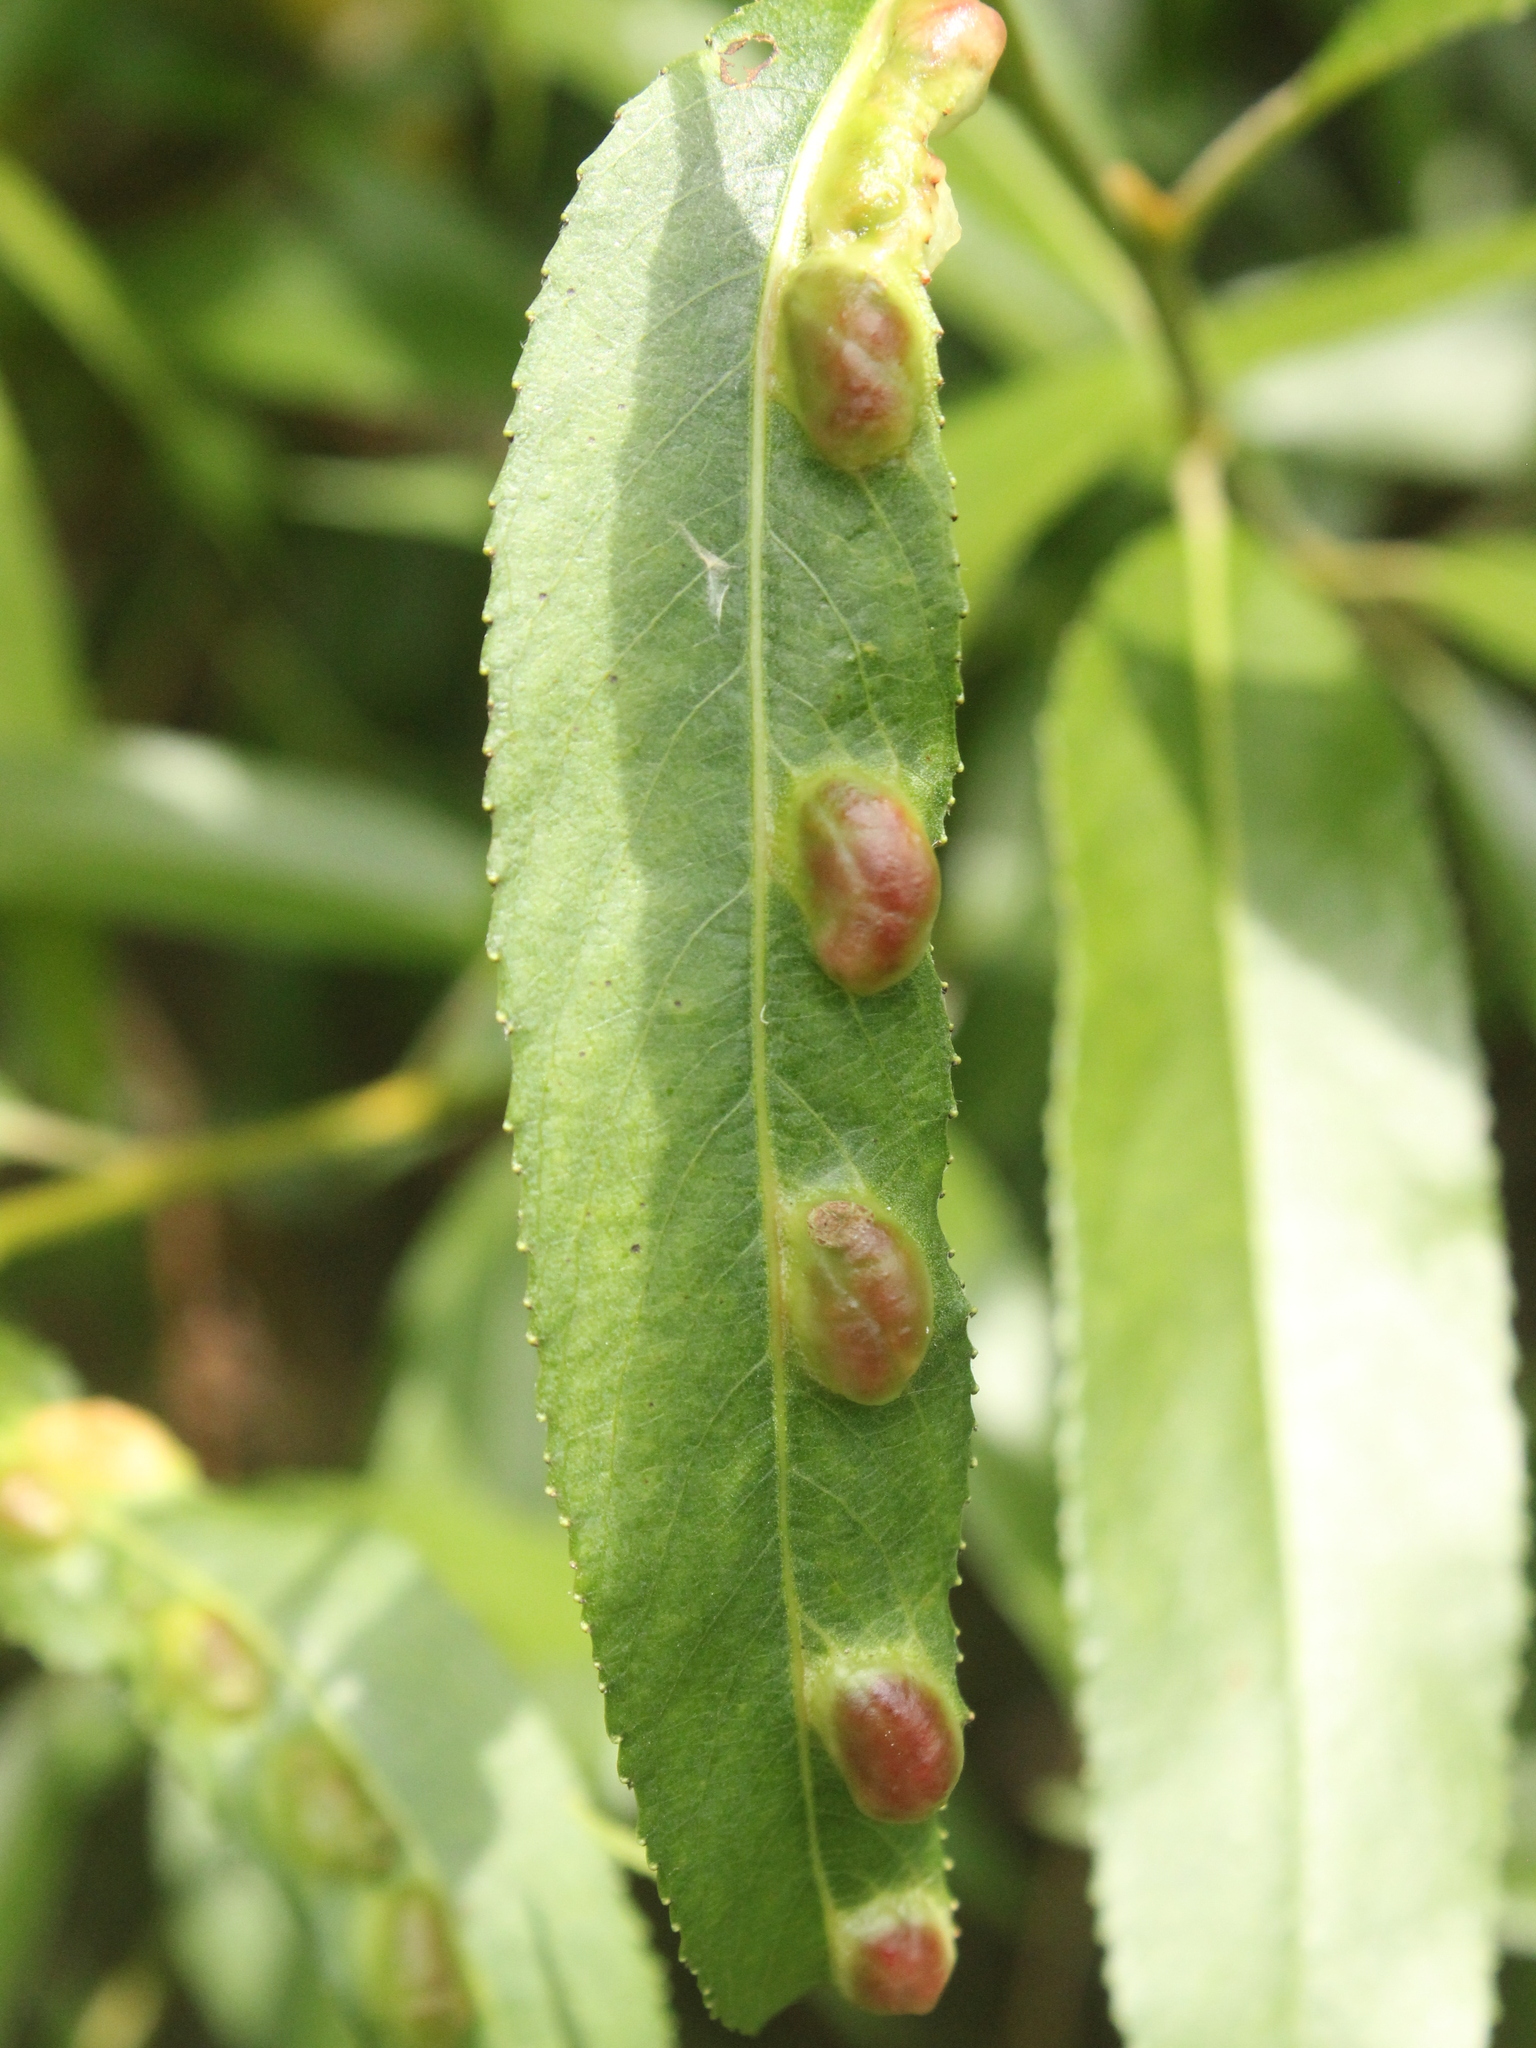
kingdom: Animalia
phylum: Arthropoda
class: Insecta
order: Hymenoptera
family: Tenthredinidae
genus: Pontania
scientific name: Pontania proxima
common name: Common sawfly
